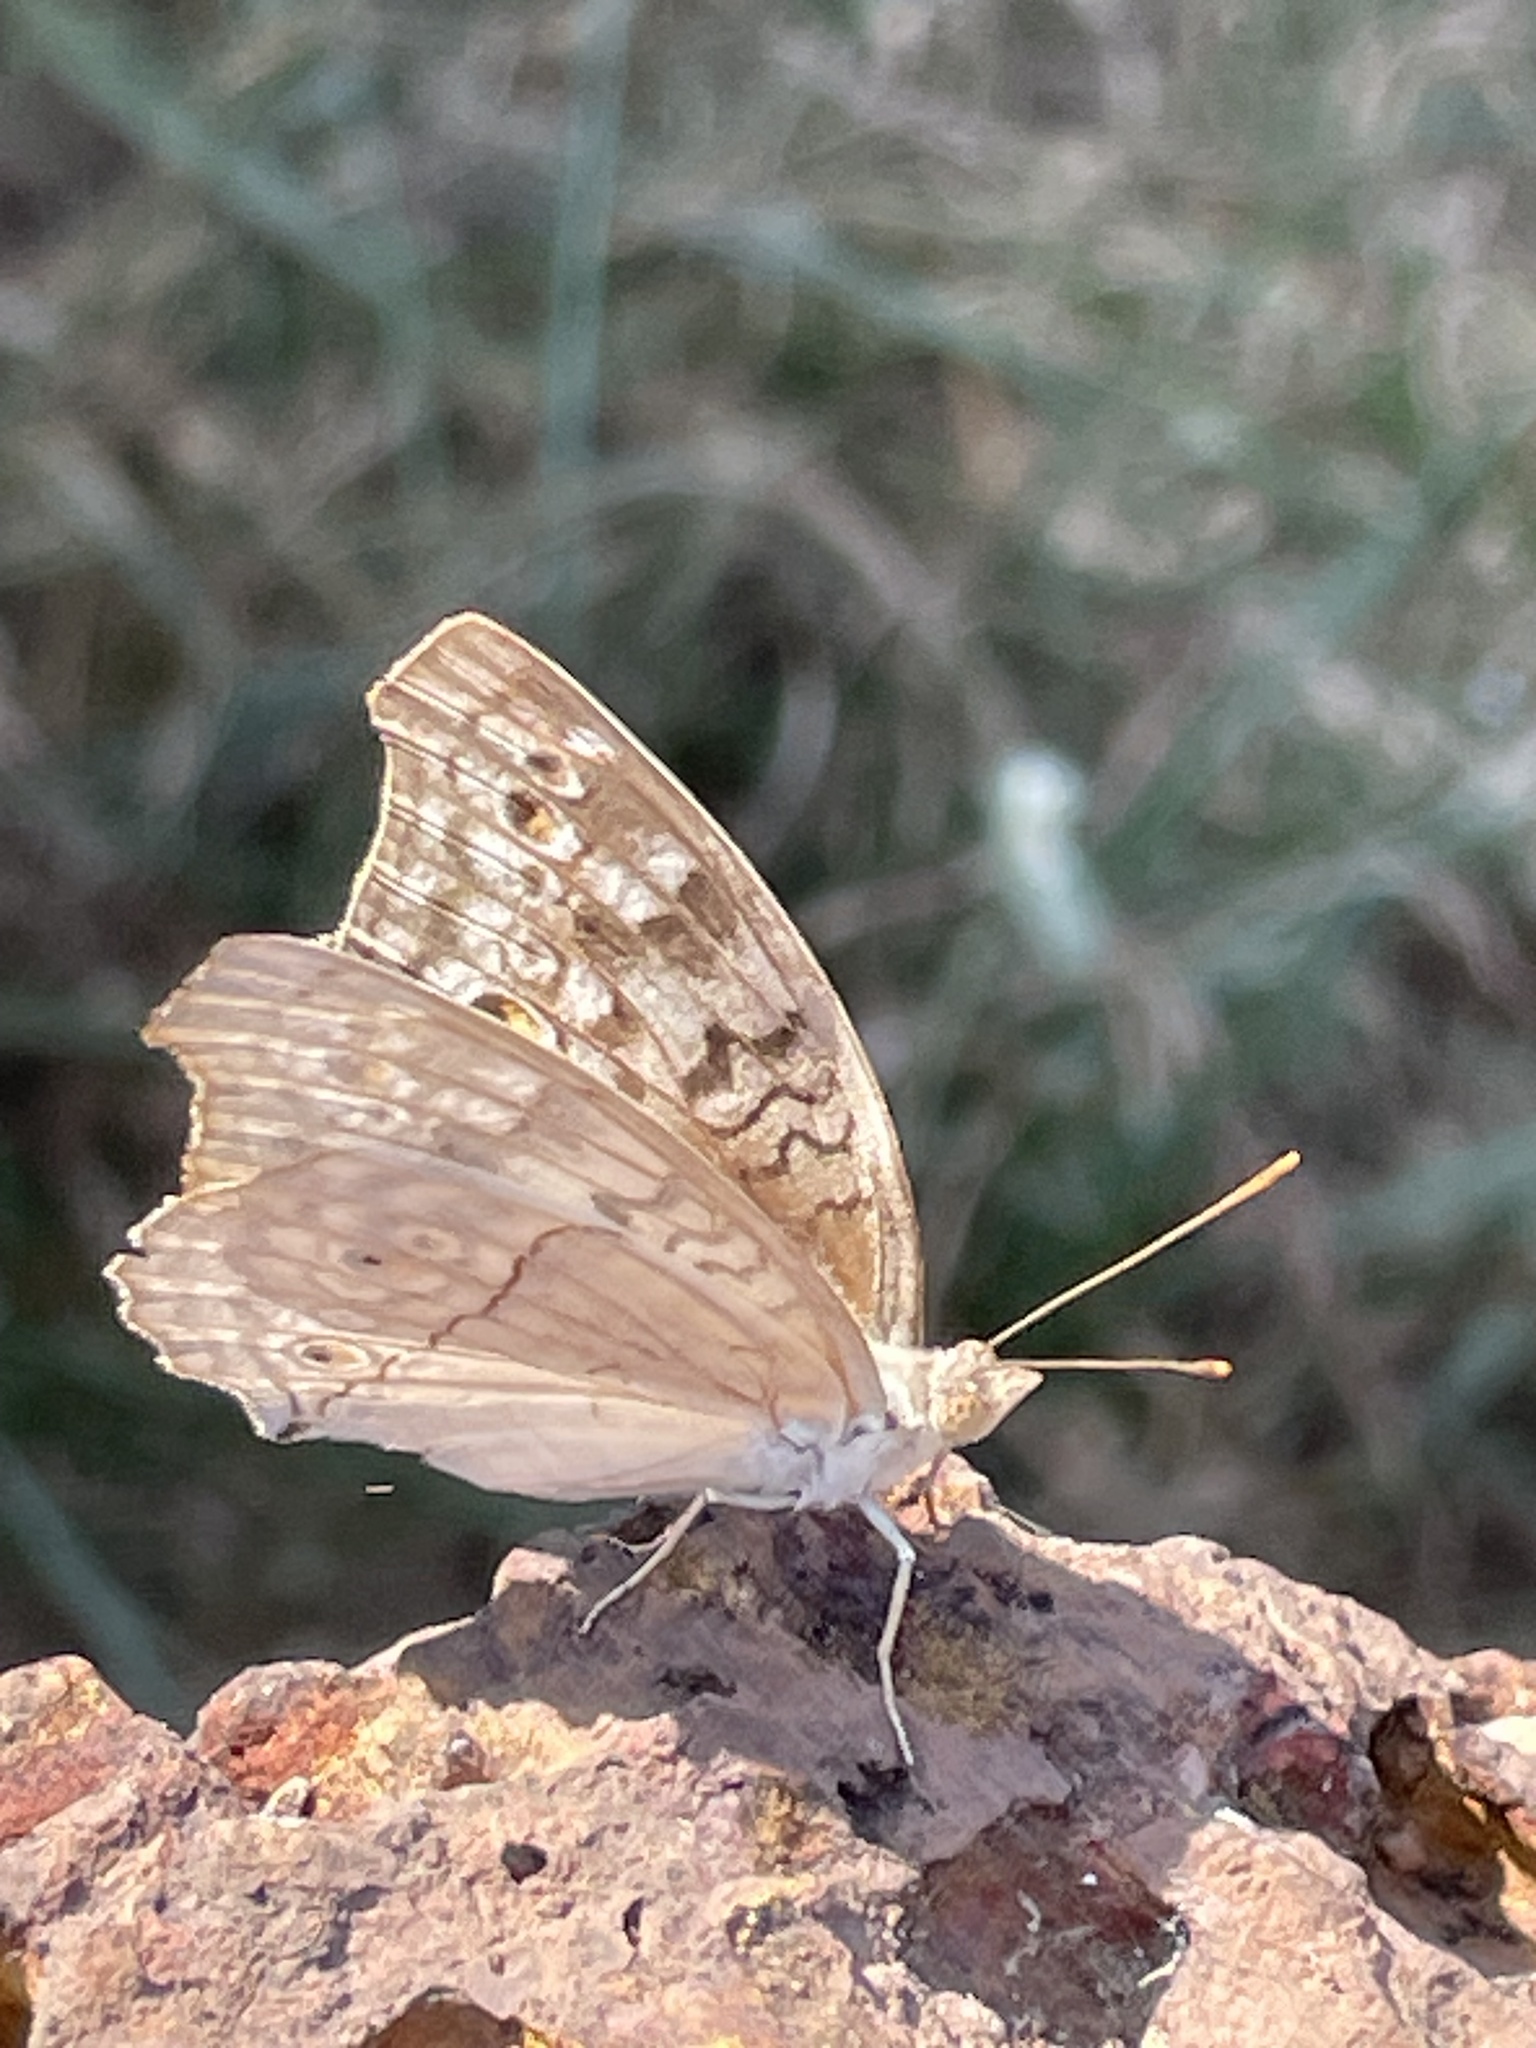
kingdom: Animalia
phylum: Arthropoda
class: Insecta
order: Lepidoptera
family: Nymphalidae
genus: Junonia
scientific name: Junonia atlites
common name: Grey pansy
